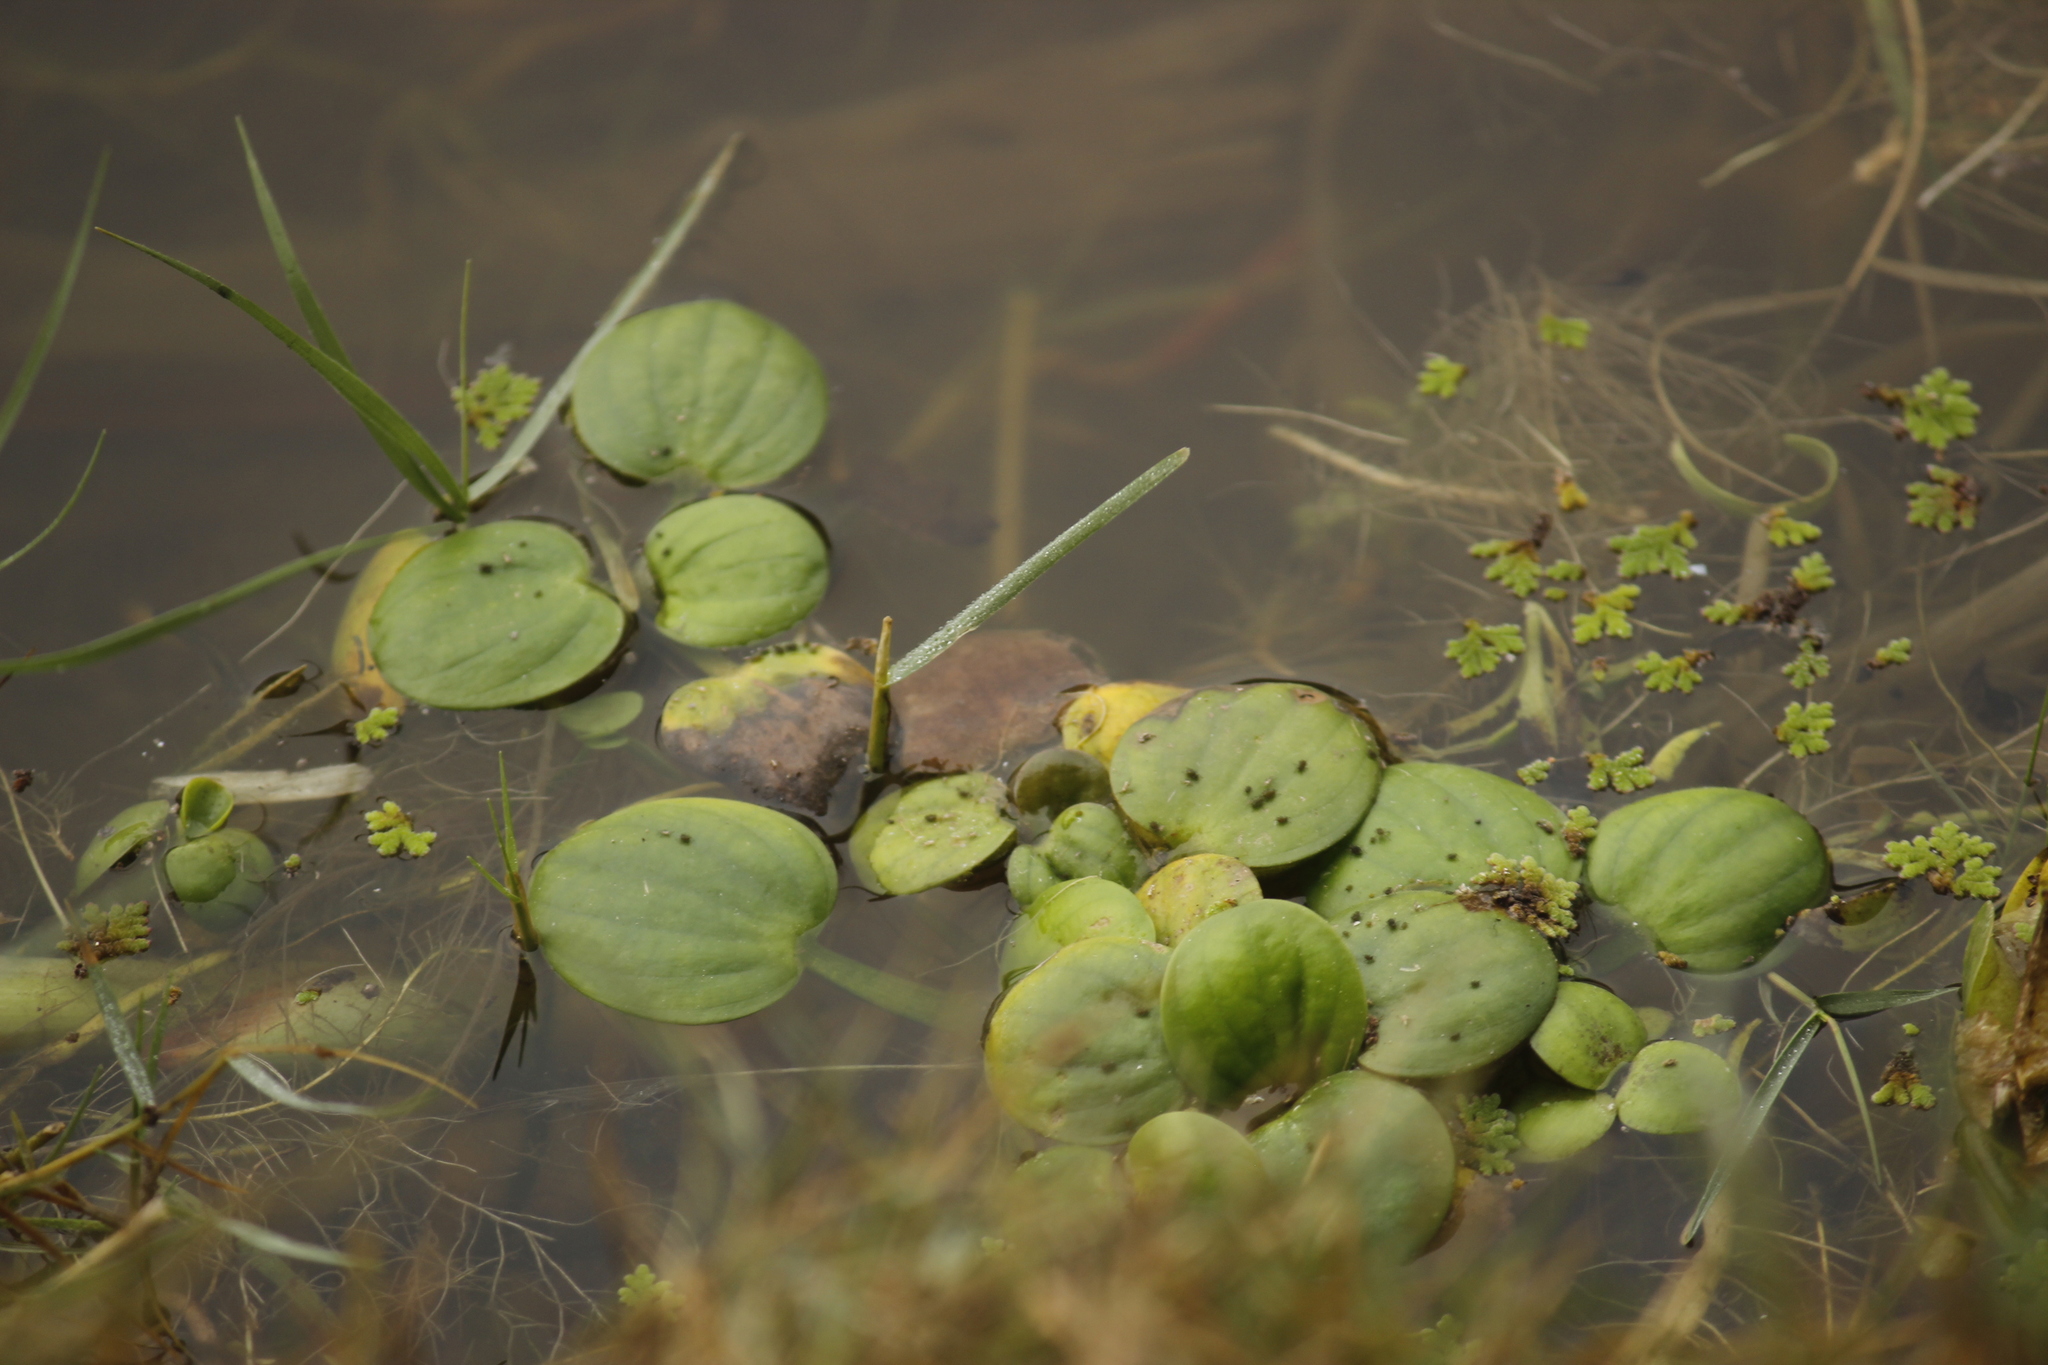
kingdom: Plantae
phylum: Tracheophyta
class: Liliopsida
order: Alismatales
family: Hydrocharitaceae
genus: Hydrocharis
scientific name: Hydrocharis laevigata
